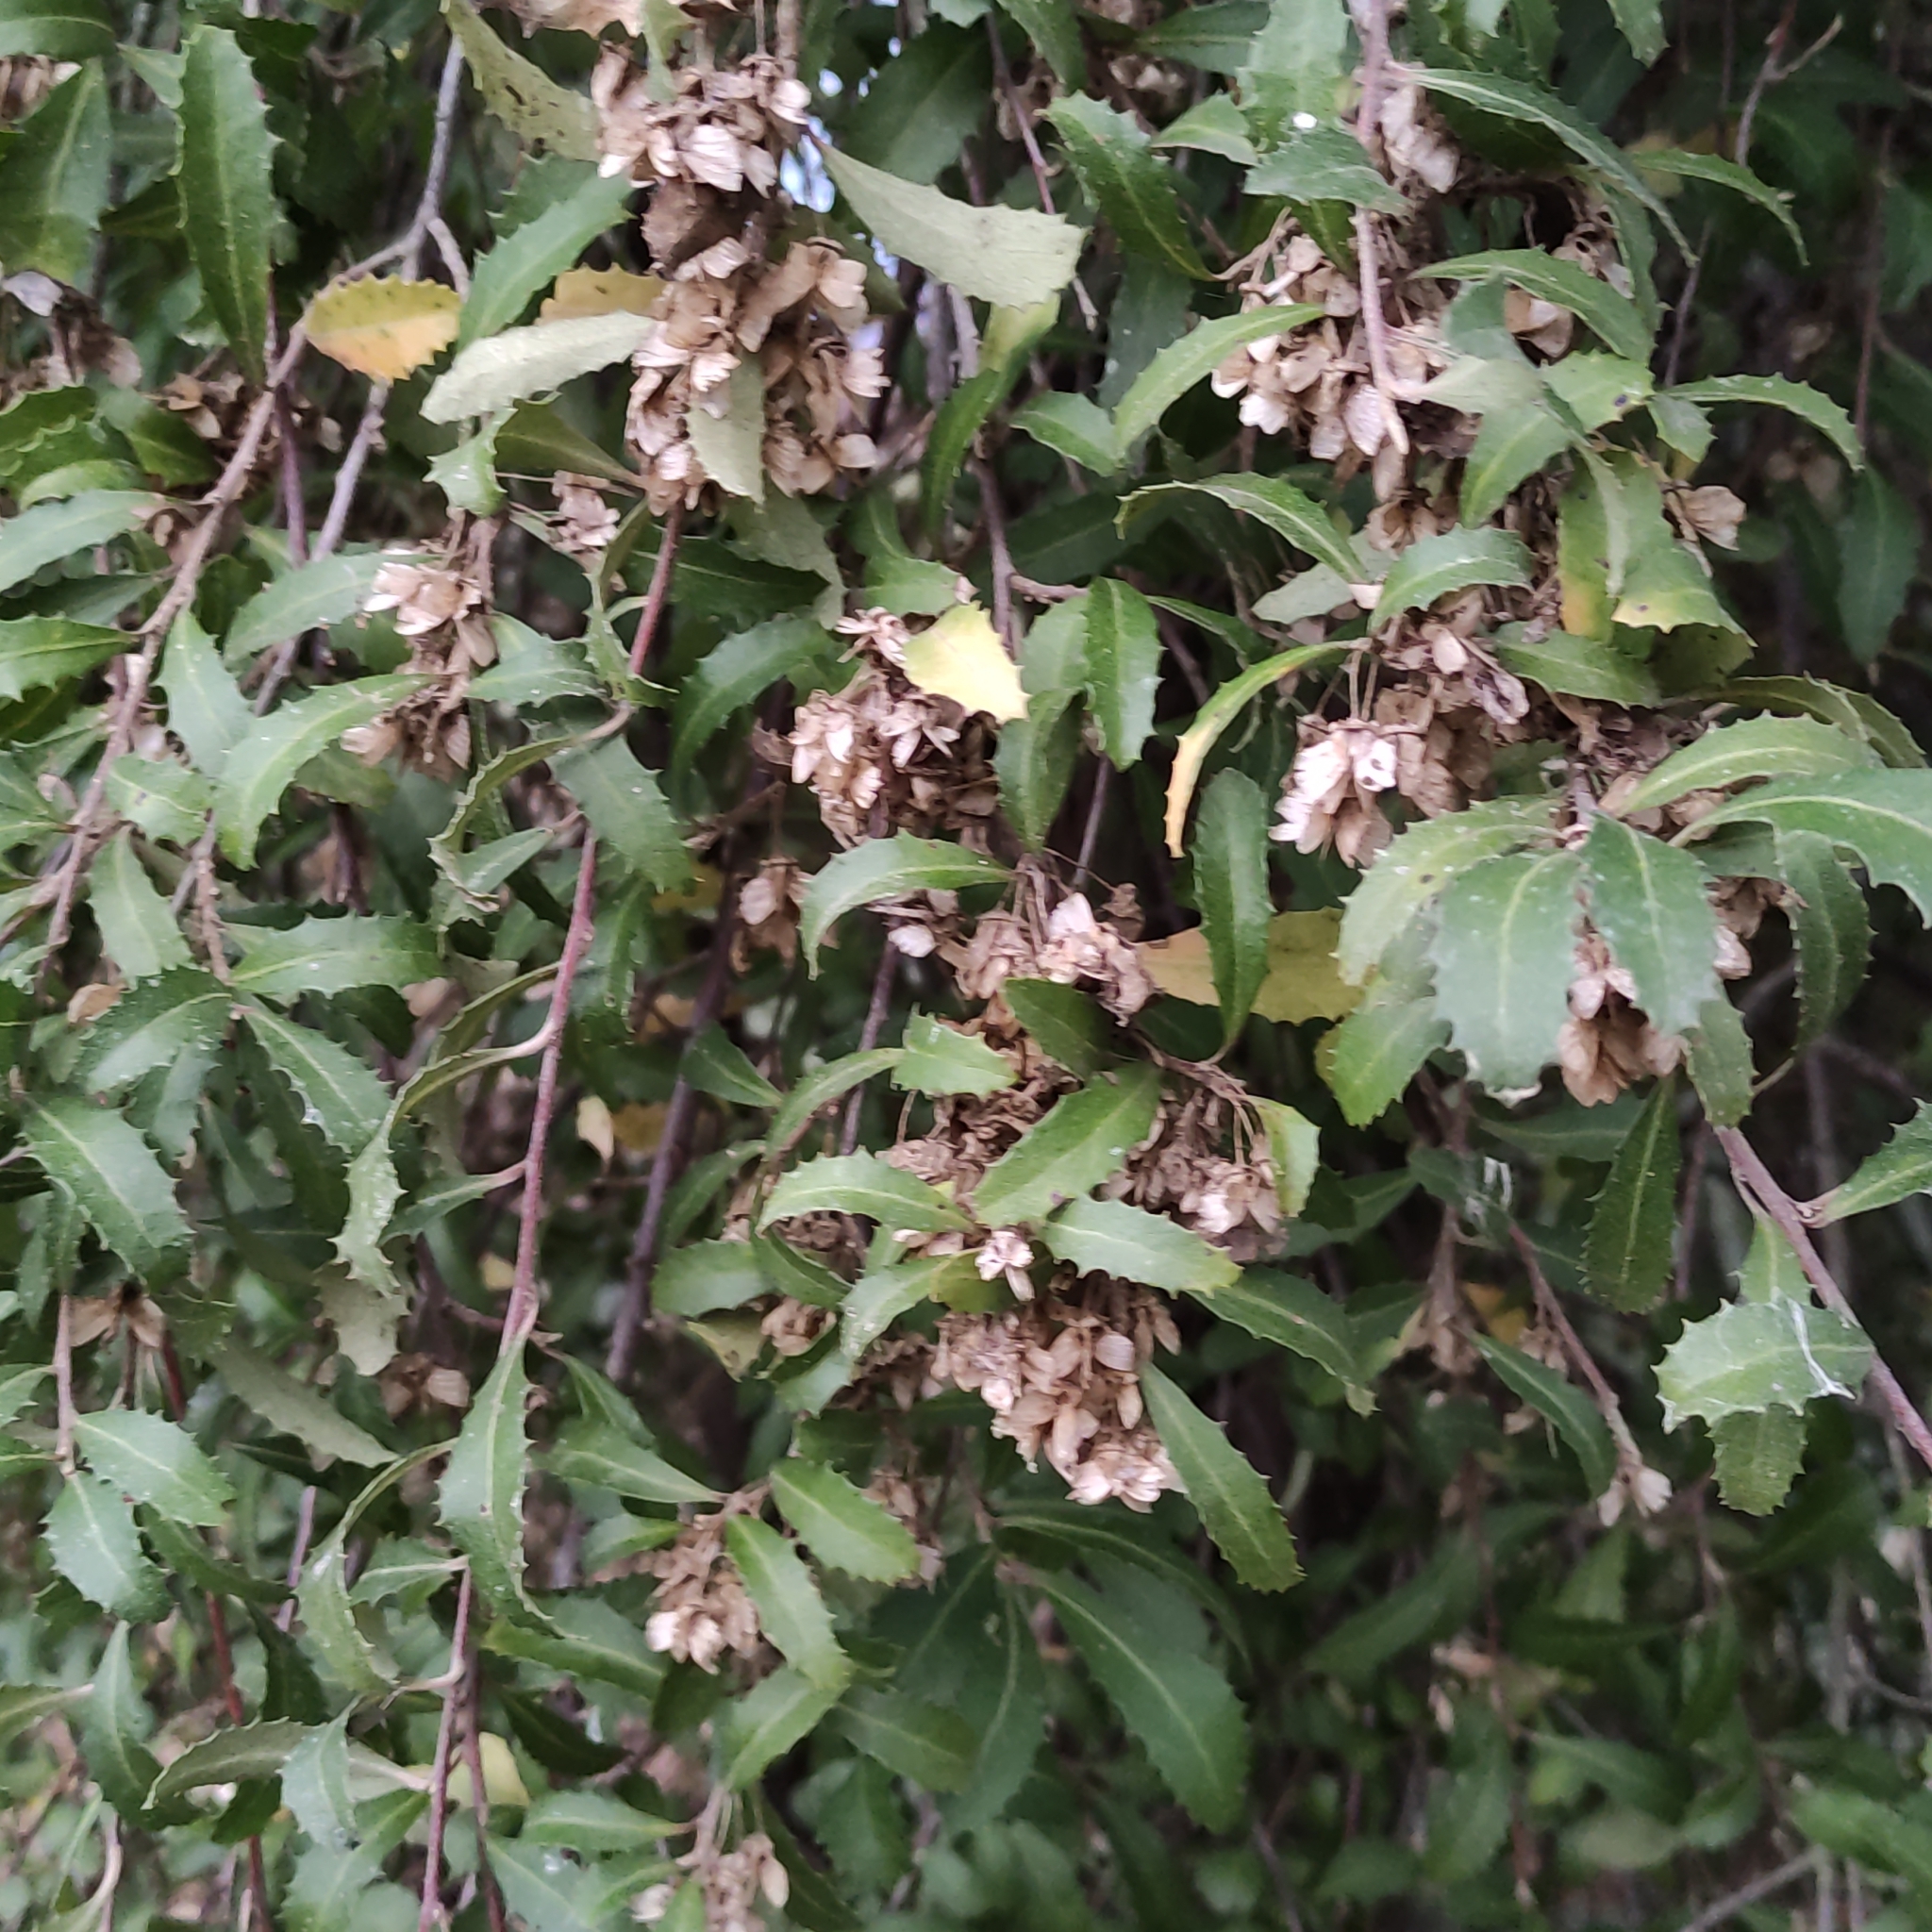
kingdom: Plantae
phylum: Tracheophyta
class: Magnoliopsida
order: Malvales
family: Malvaceae
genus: Hoheria
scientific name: Hoheria angustifolia
